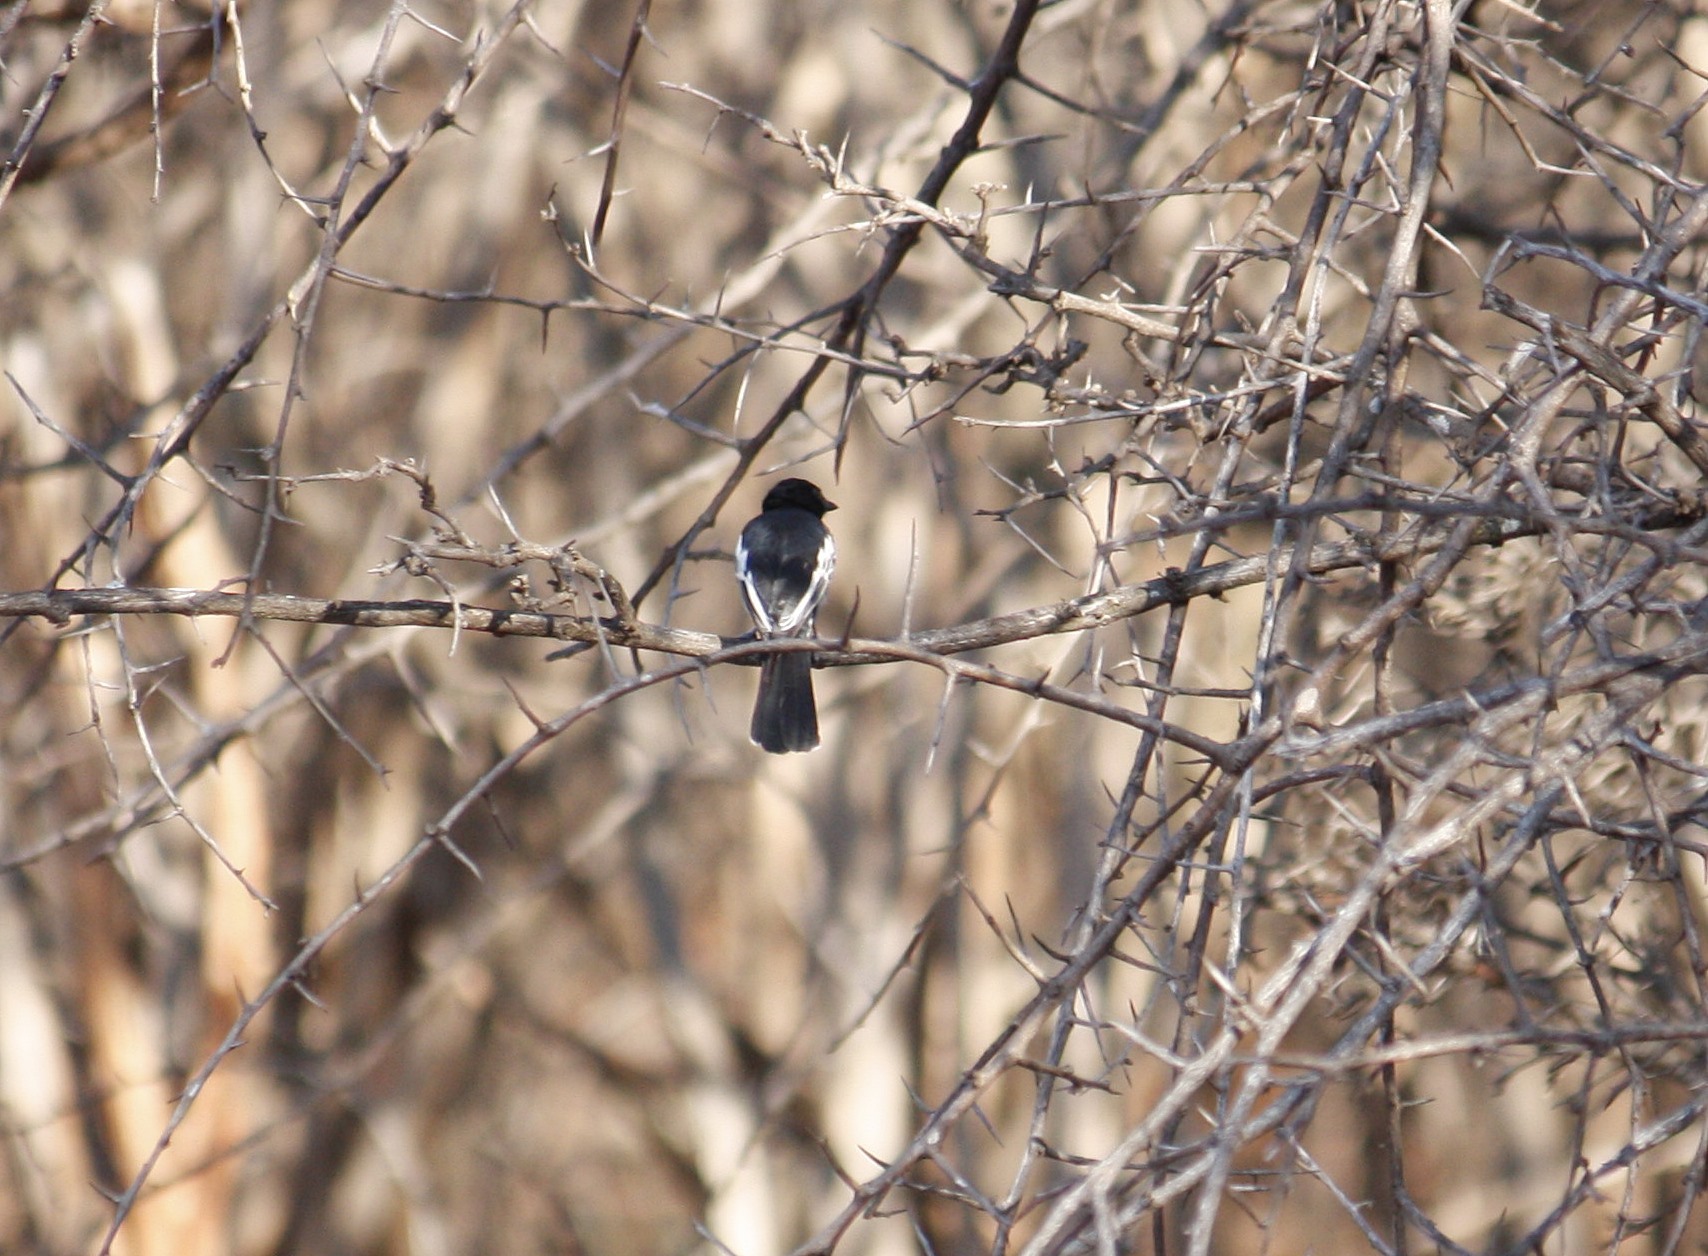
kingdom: Animalia
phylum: Chordata
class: Aves
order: Passeriformes
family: Paridae
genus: Parus
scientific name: Parus niger
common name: Southern black tit
